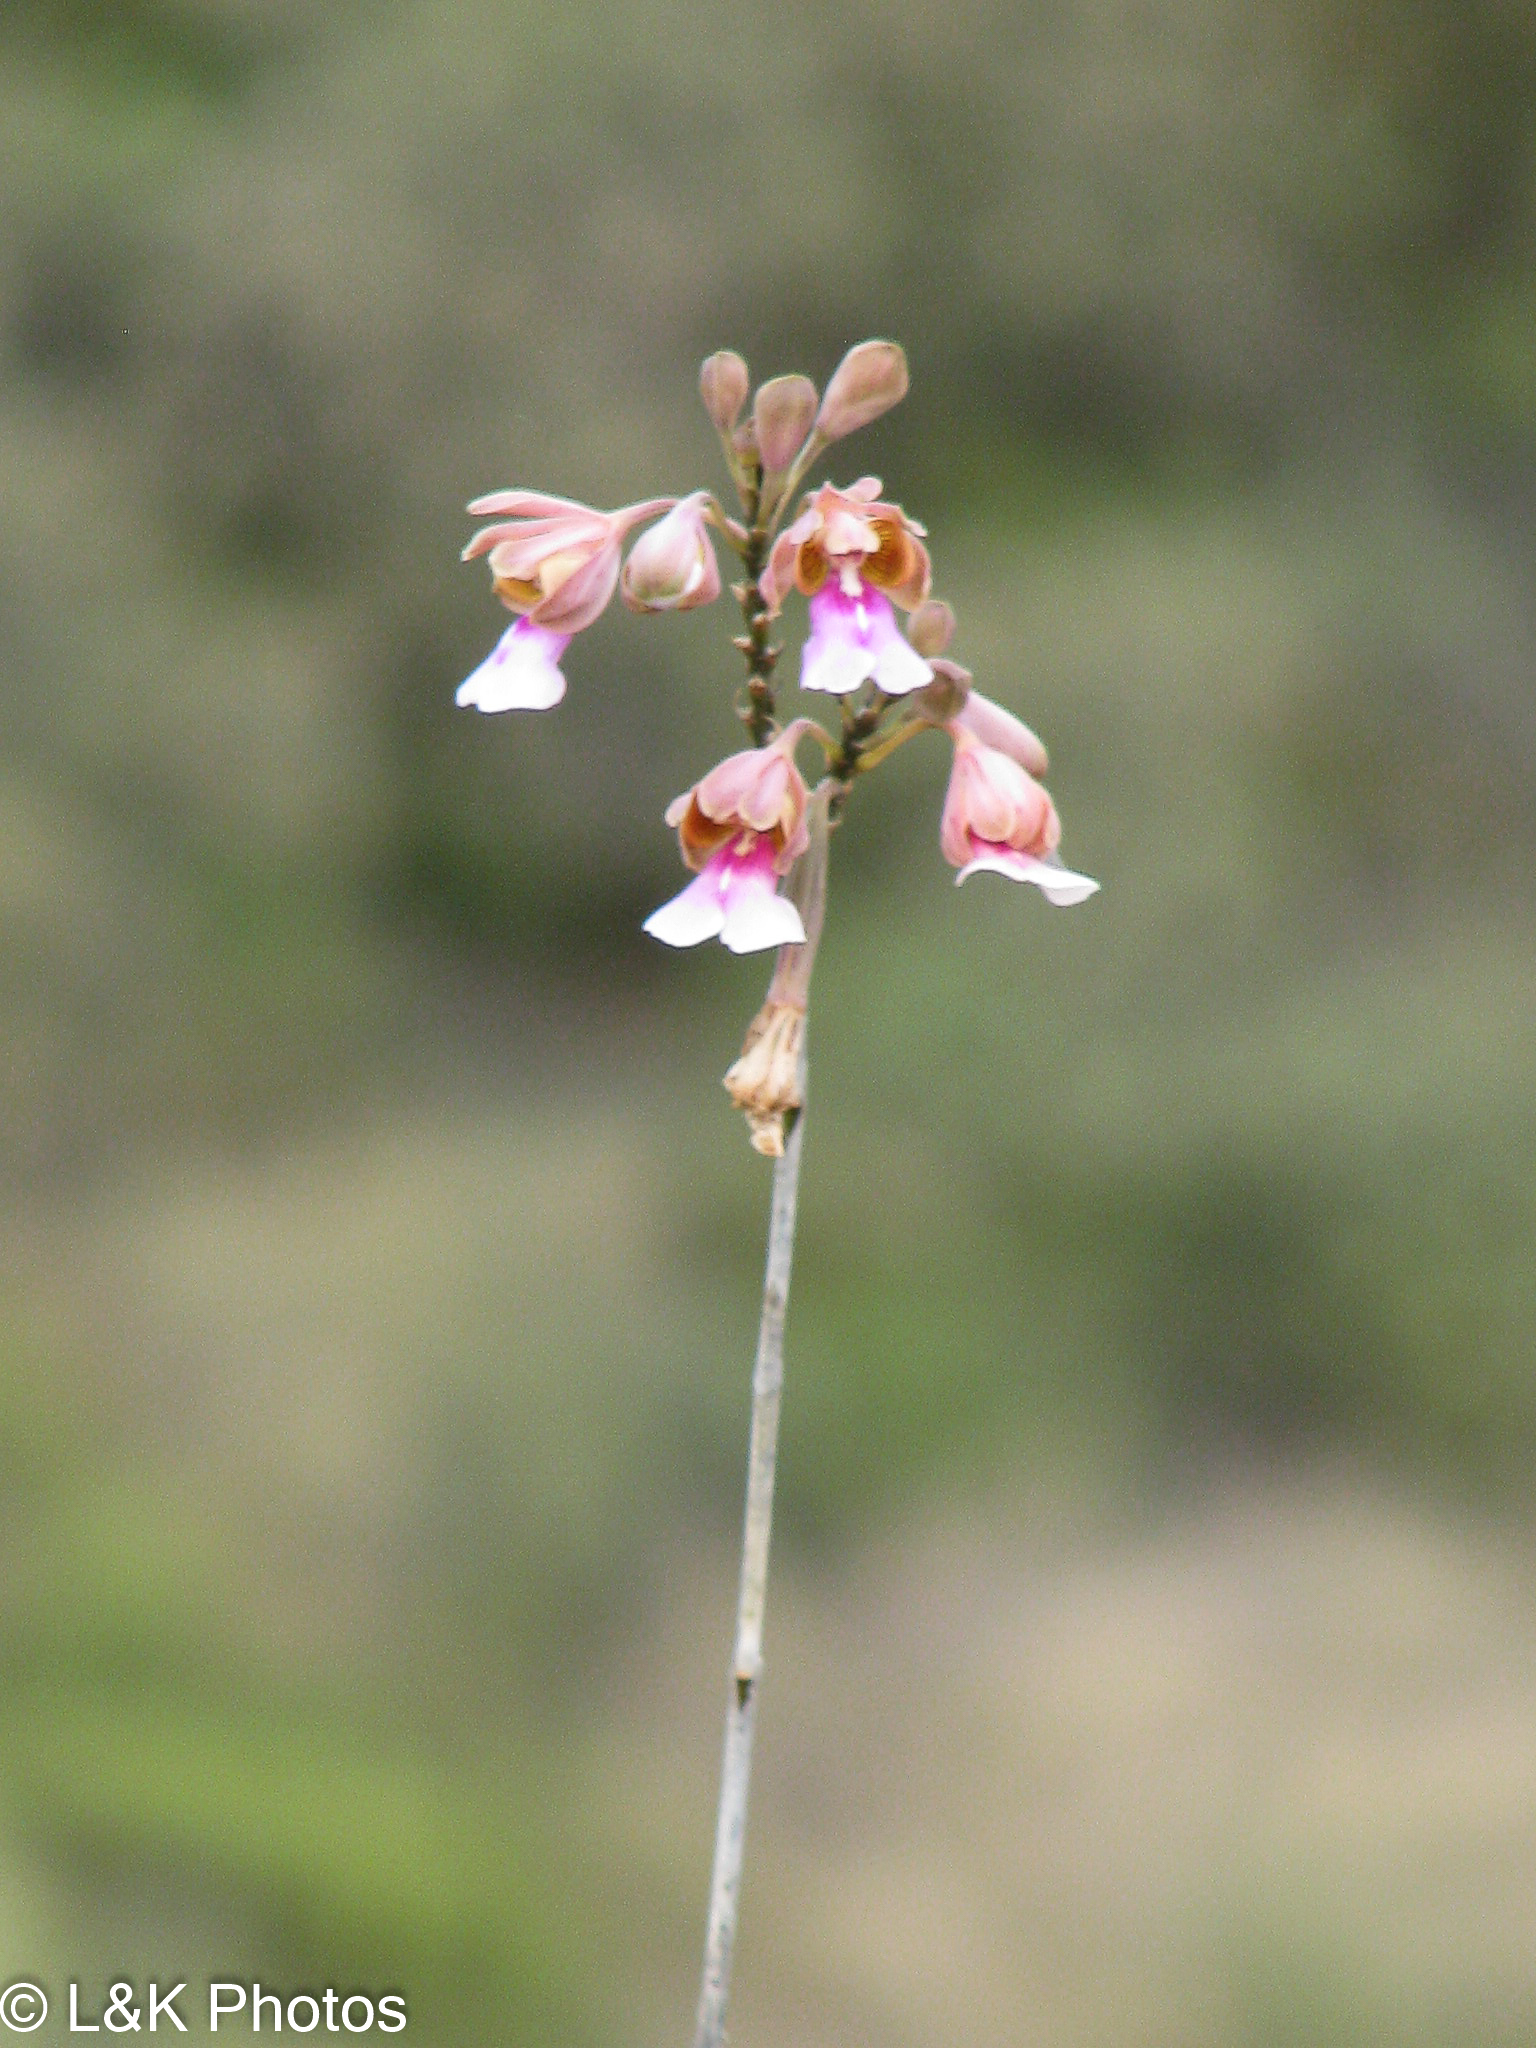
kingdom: Plantae
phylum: Tracheophyta
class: Liliopsida
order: Asparagales
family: Orchidaceae
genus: Psychilis
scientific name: Psychilis macconnelliae
